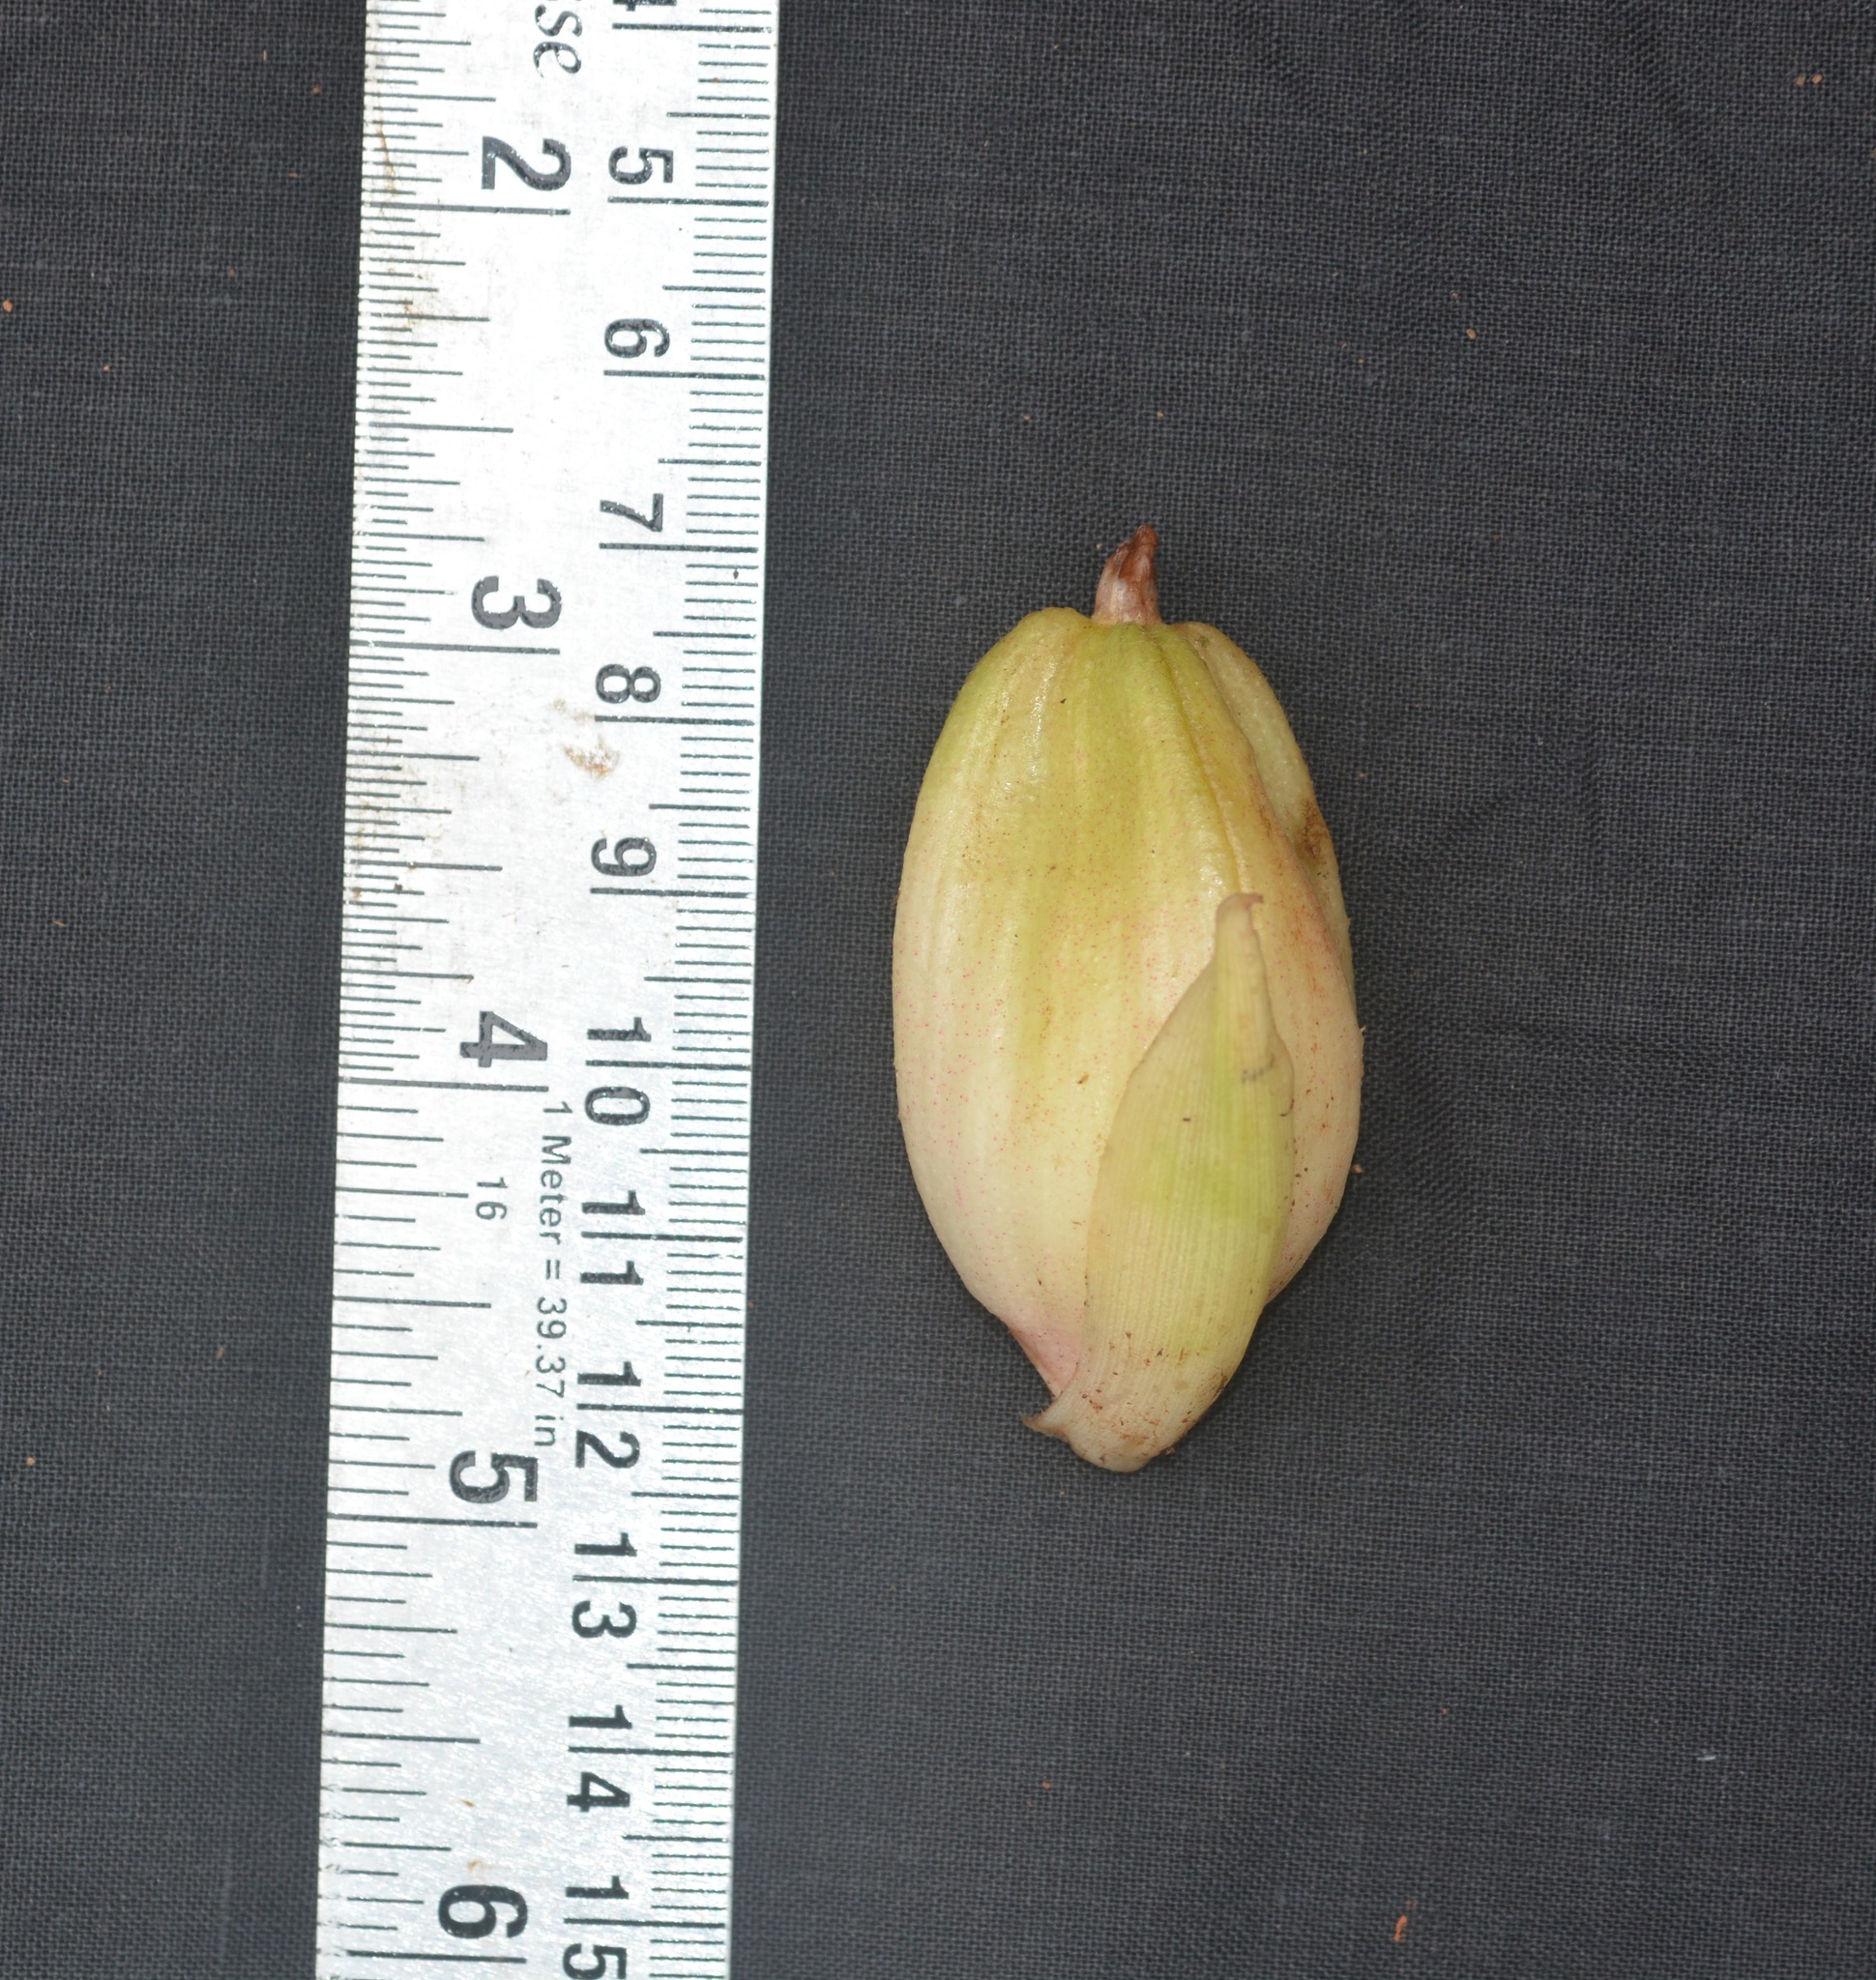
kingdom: Plantae
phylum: Tracheophyta
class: Liliopsida
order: Zingiberales
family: Zingiberaceae
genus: Zingiber
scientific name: Zingiber nimmonii
